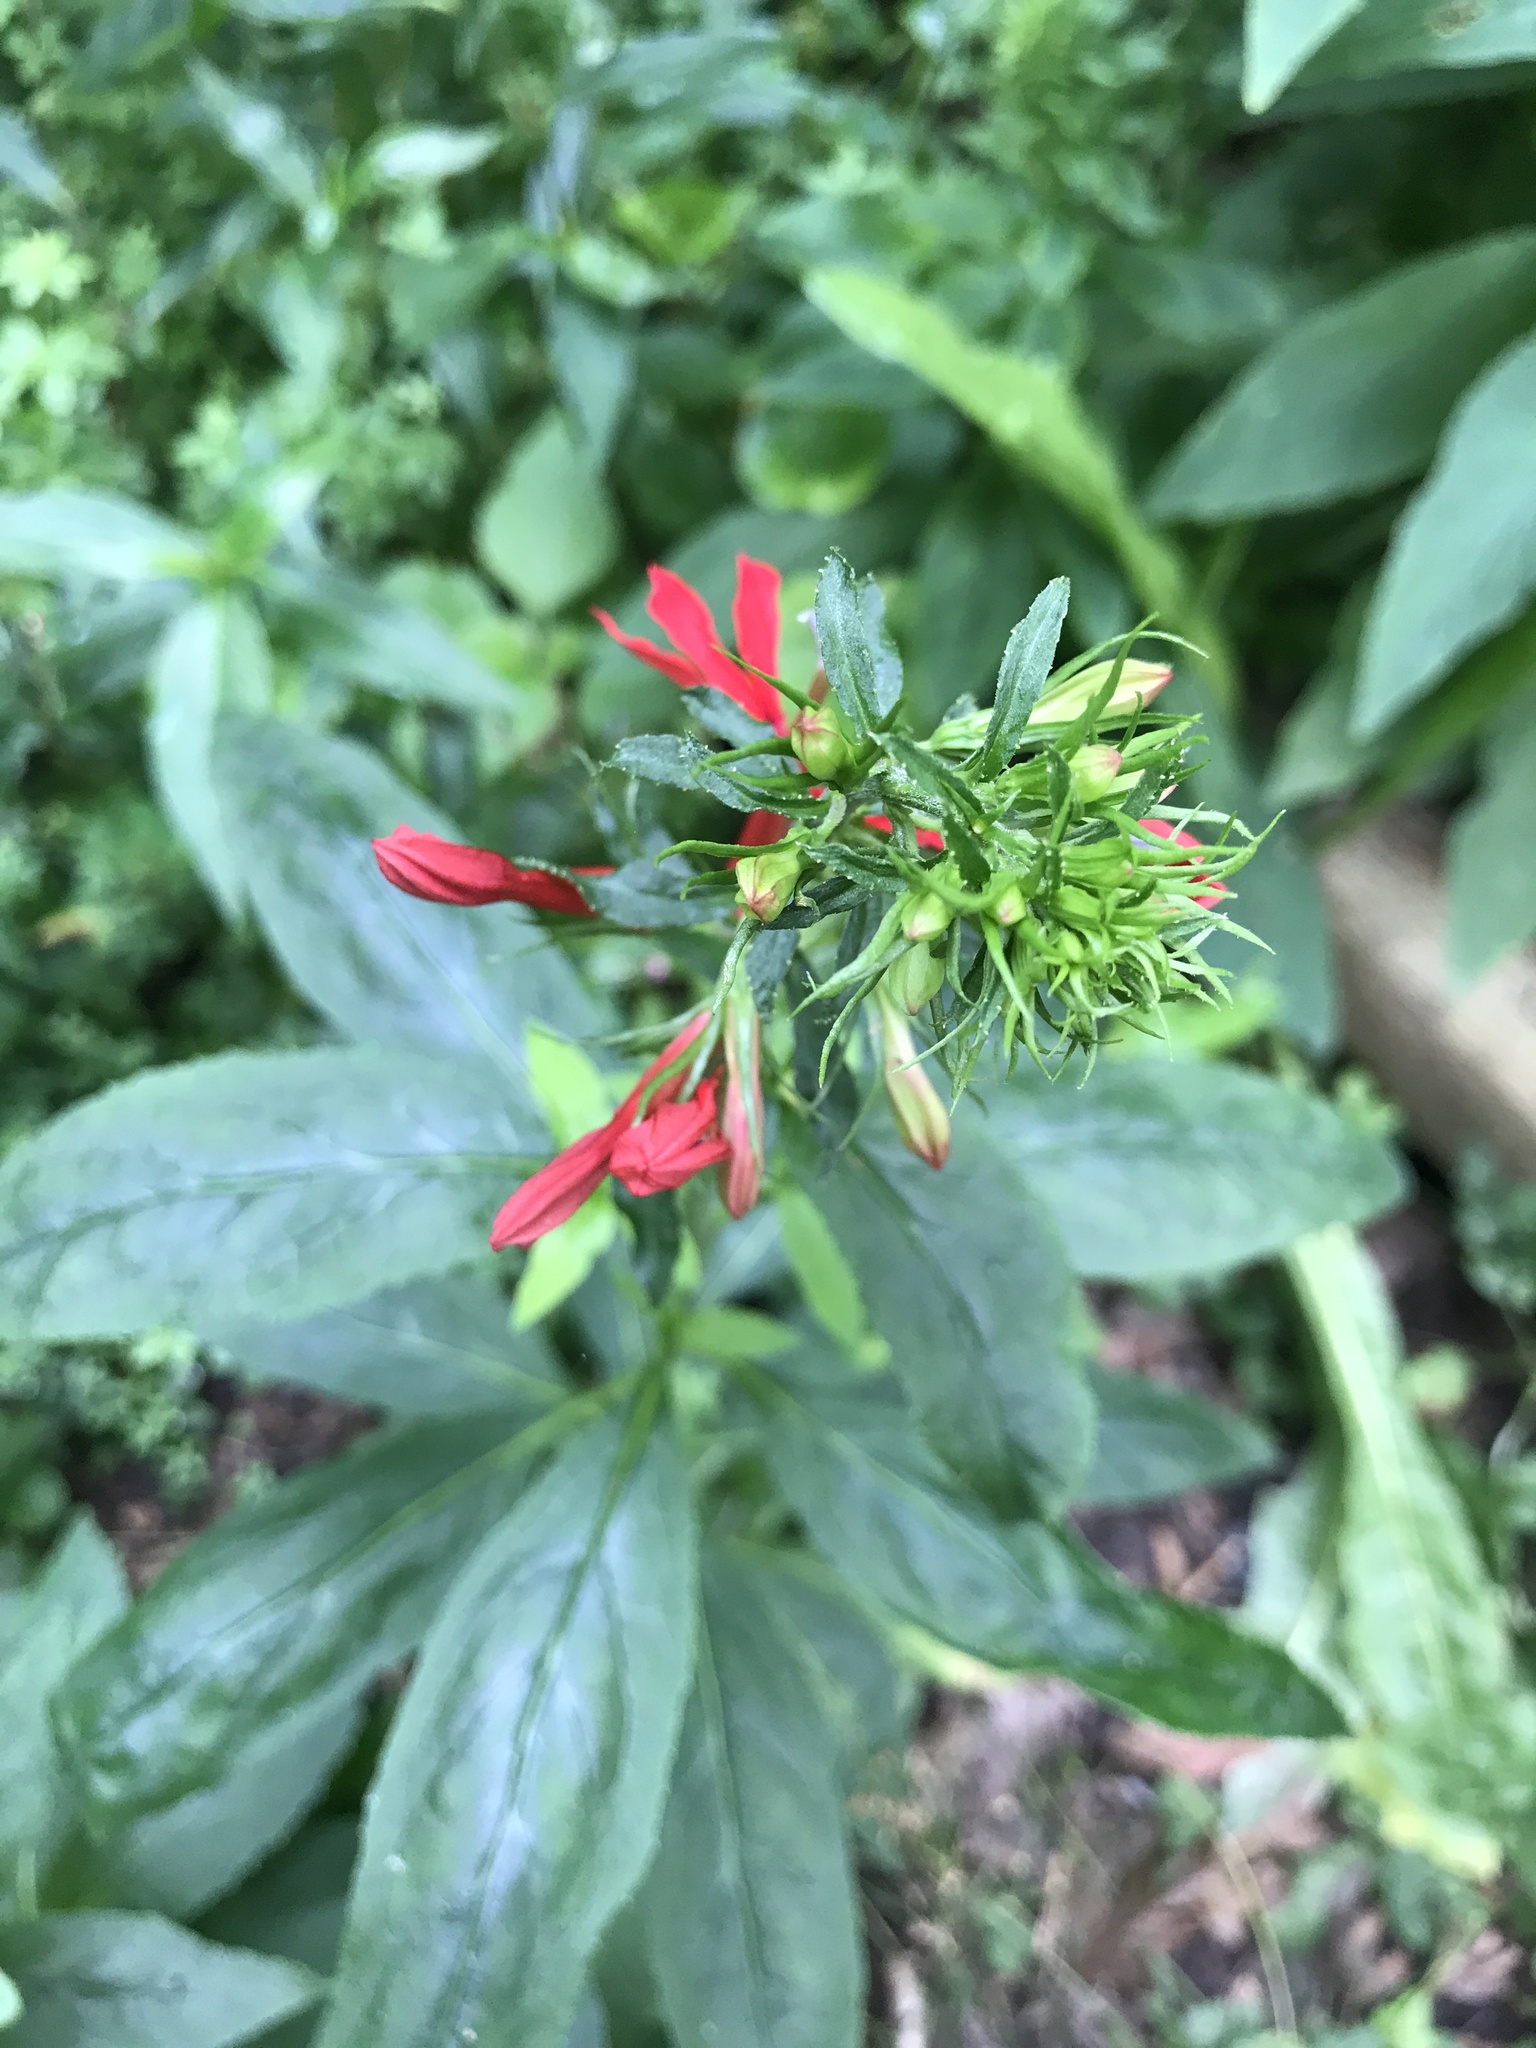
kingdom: Plantae
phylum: Tracheophyta
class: Magnoliopsida
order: Asterales
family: Campanulaceae
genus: Lobelia
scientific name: Lobelia cardinalis
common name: Cardinal flower
